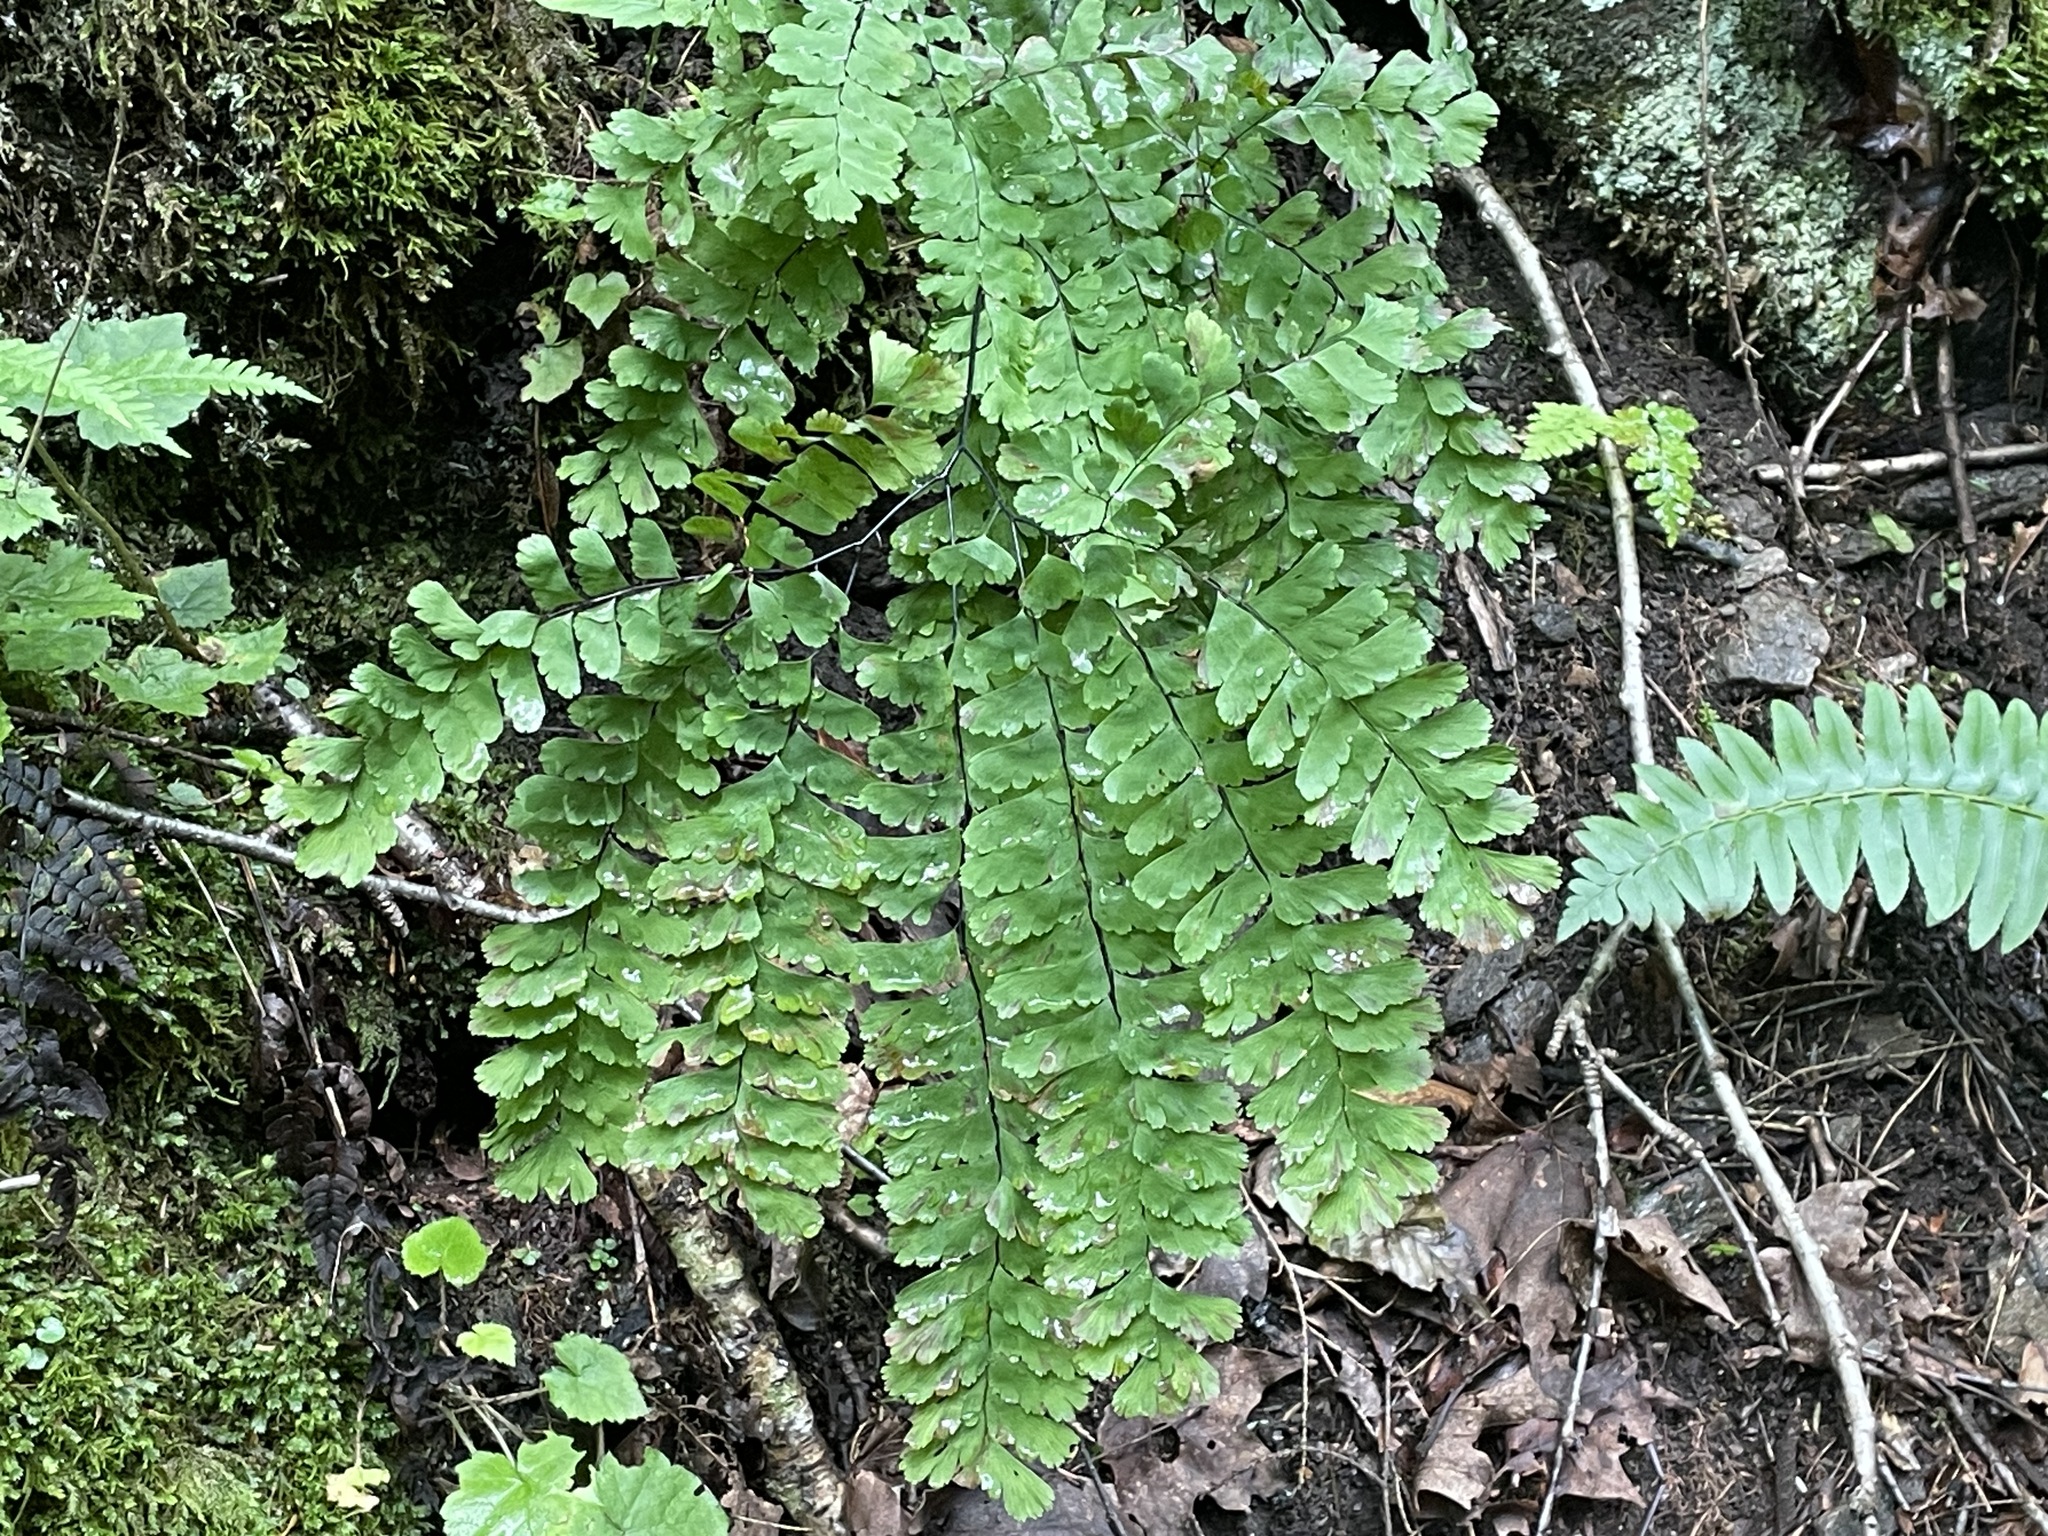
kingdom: Plantae
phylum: Tracheophyta
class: Polypodiopsida
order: Polypodiales
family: Pteridaceae
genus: Adiantum
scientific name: Adiantum pedatum
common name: Five-finger fern
